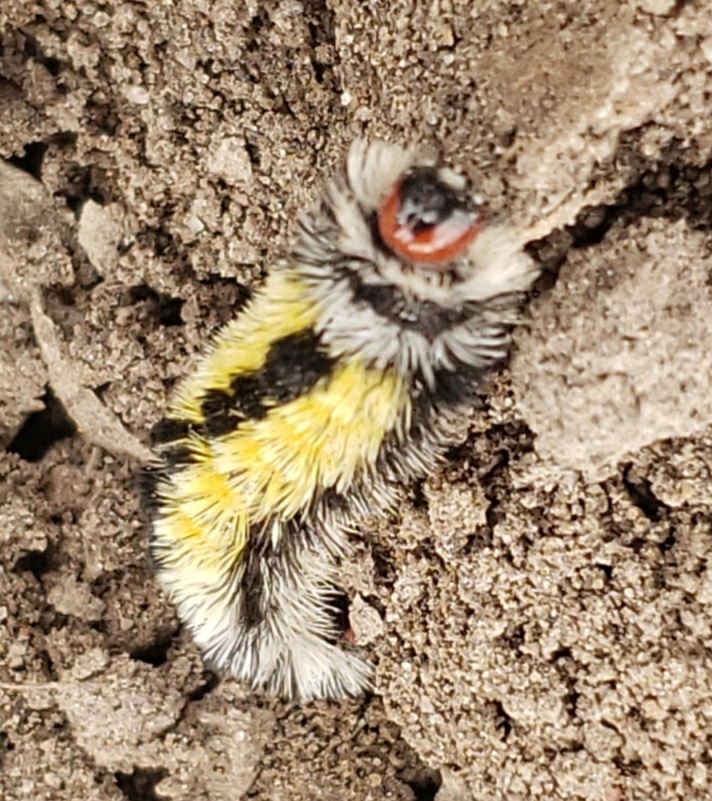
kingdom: Animalia
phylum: Arthropoda
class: Insecta
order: Lepidoptera
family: Erebidae
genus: Ctenucha
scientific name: Ctenucha virginica
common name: Virginia ctenucha moth
